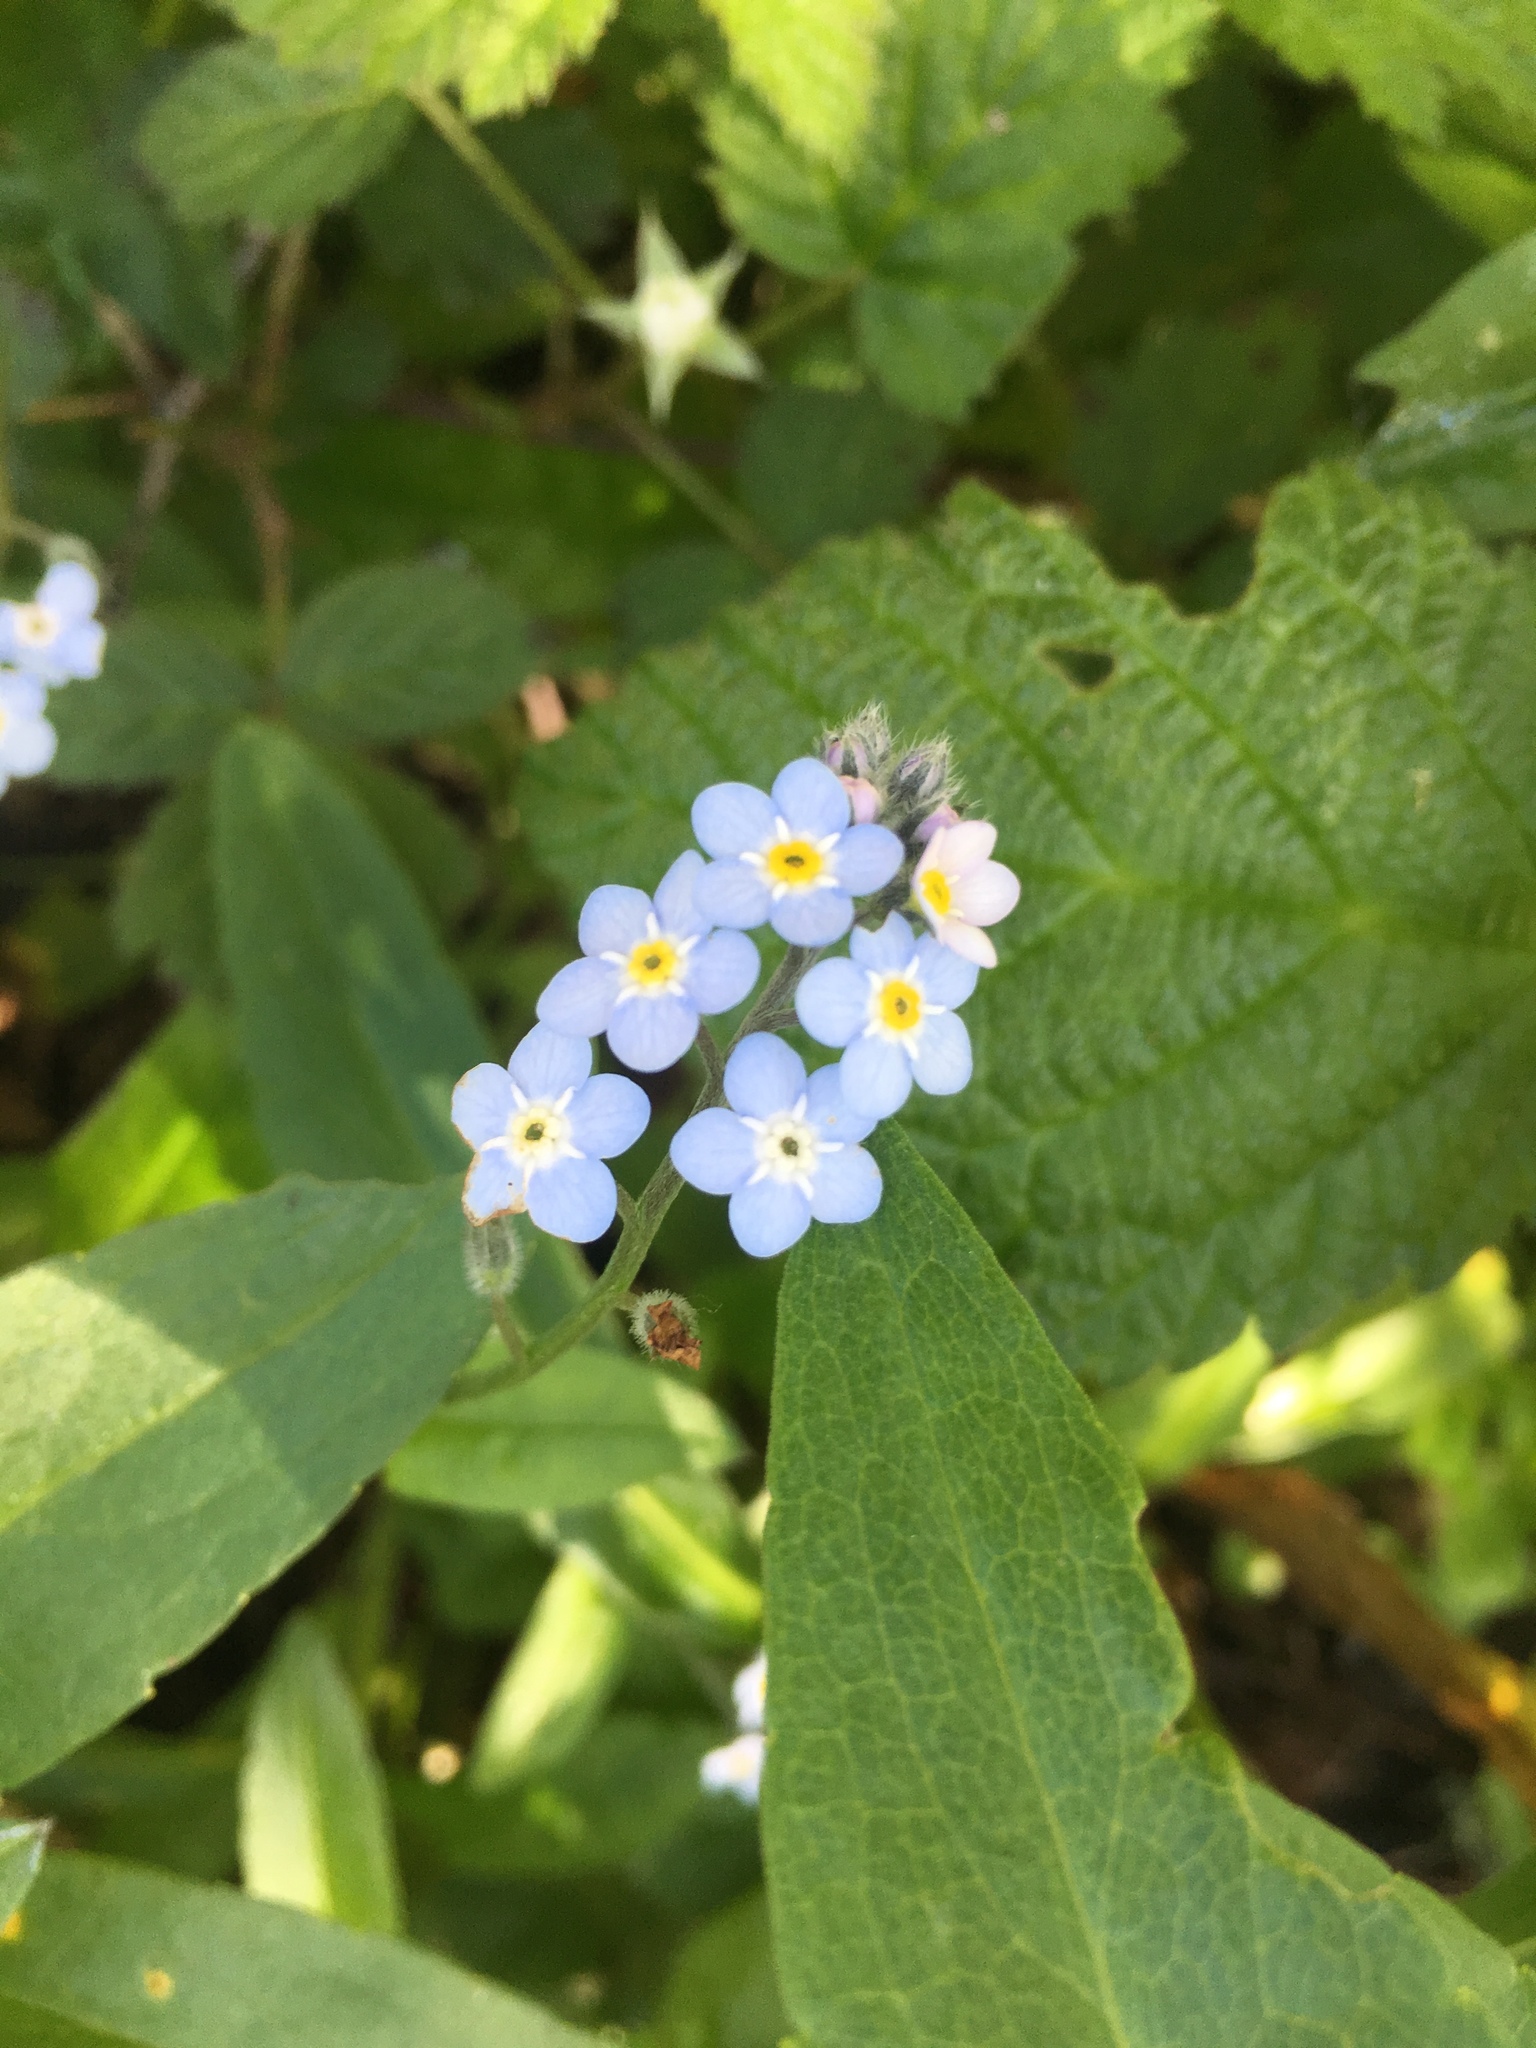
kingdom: Plantae
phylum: Tracheophyta
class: Magnoliopsida
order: Boraginales
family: Boraginaceae
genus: Myosotis
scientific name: Myosotis latifolia
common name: Broadleaf forget-me-not
